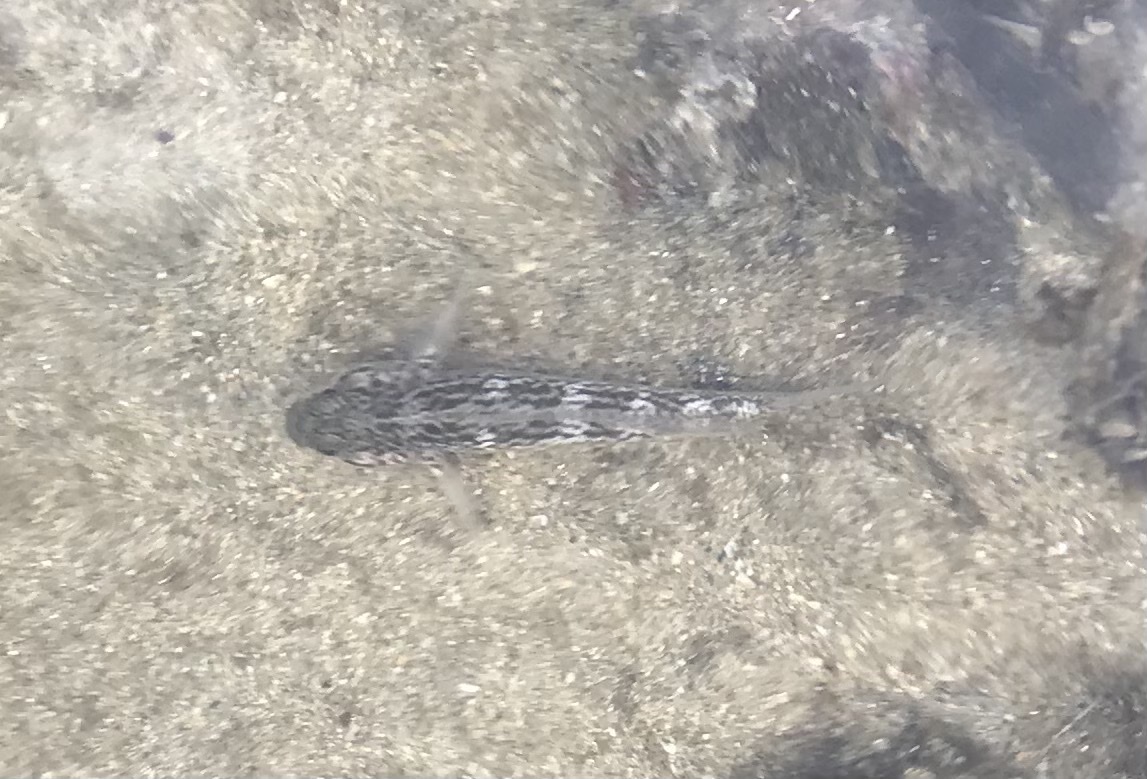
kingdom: Animalia
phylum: Chordata
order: Perciformes
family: Gobiidae
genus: Caffrogobius
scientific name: Caffrogobius caffer
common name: Banded goby
